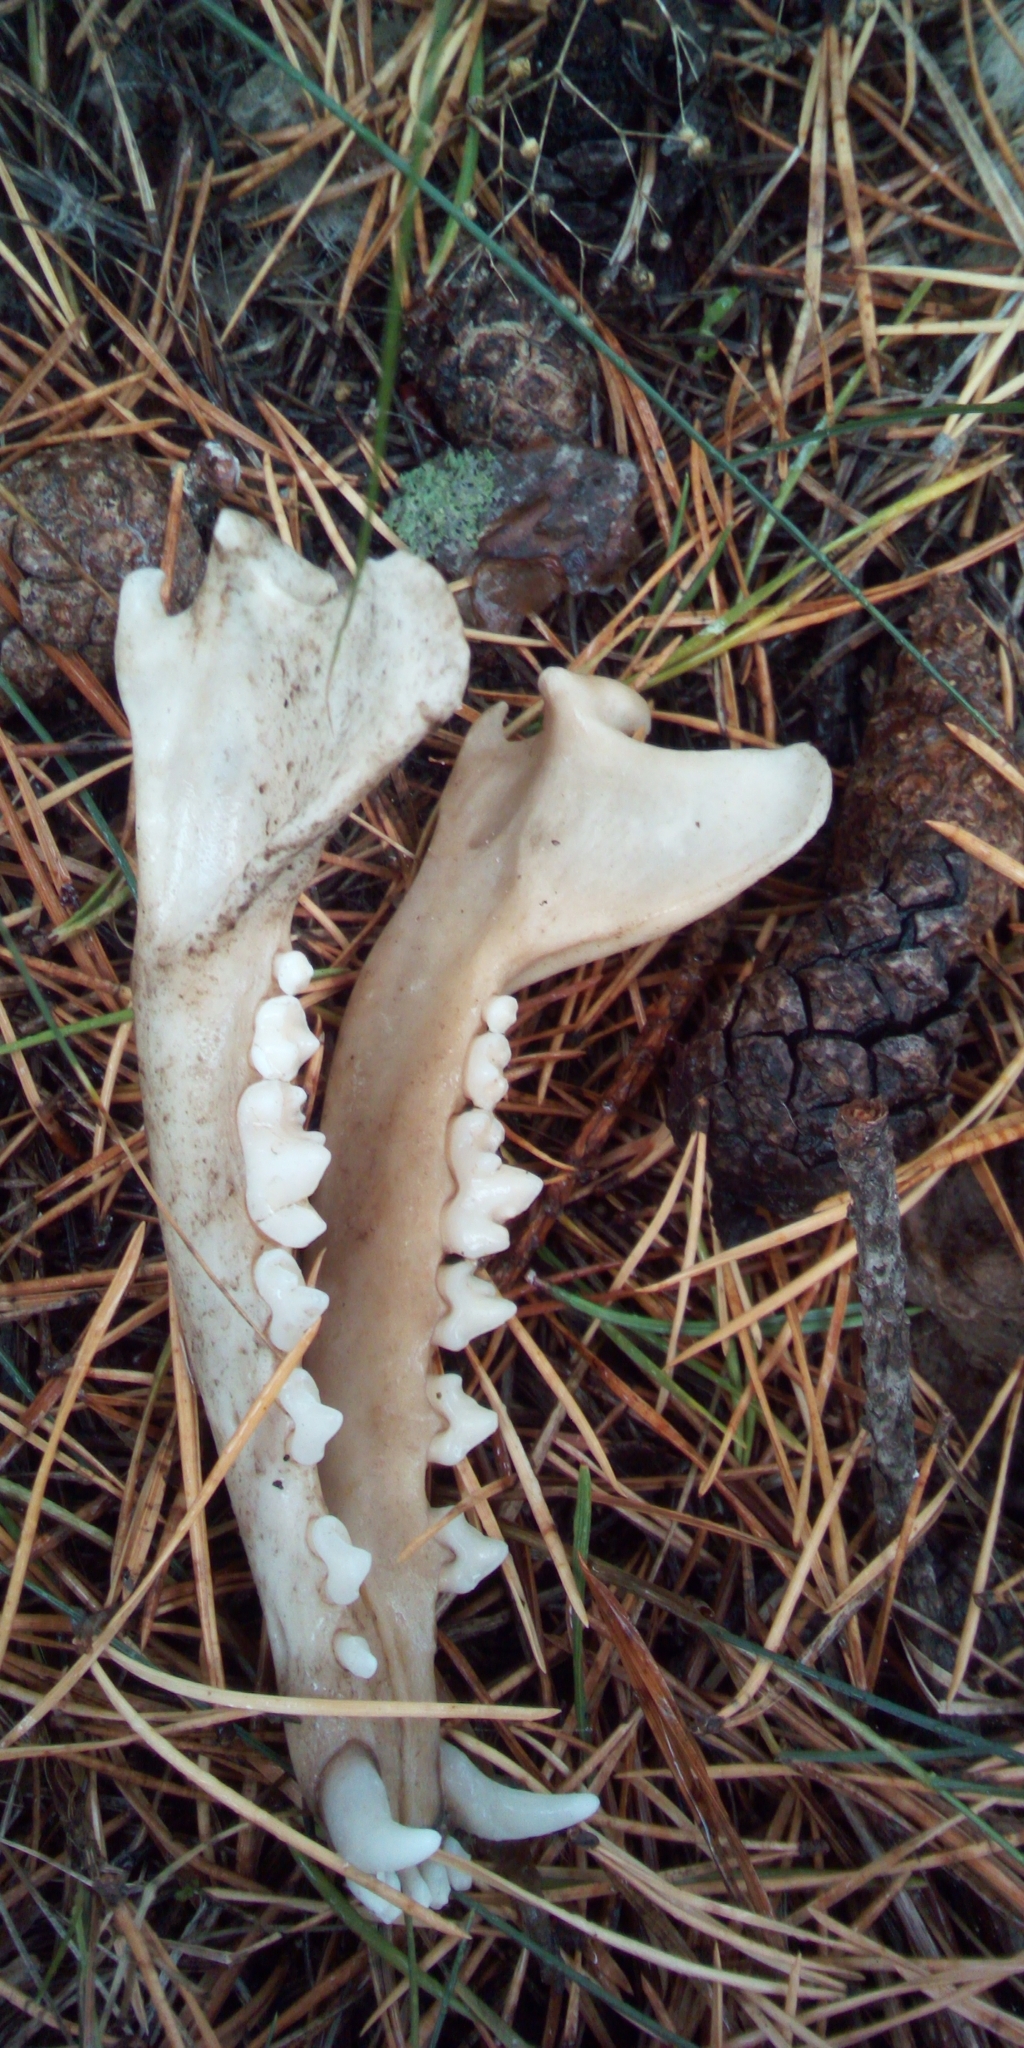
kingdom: Animalia
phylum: Chordata
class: Mammalia
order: Carnivora
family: Canidae
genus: Vulpes
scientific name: Vulpes vulpes
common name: Red fox
